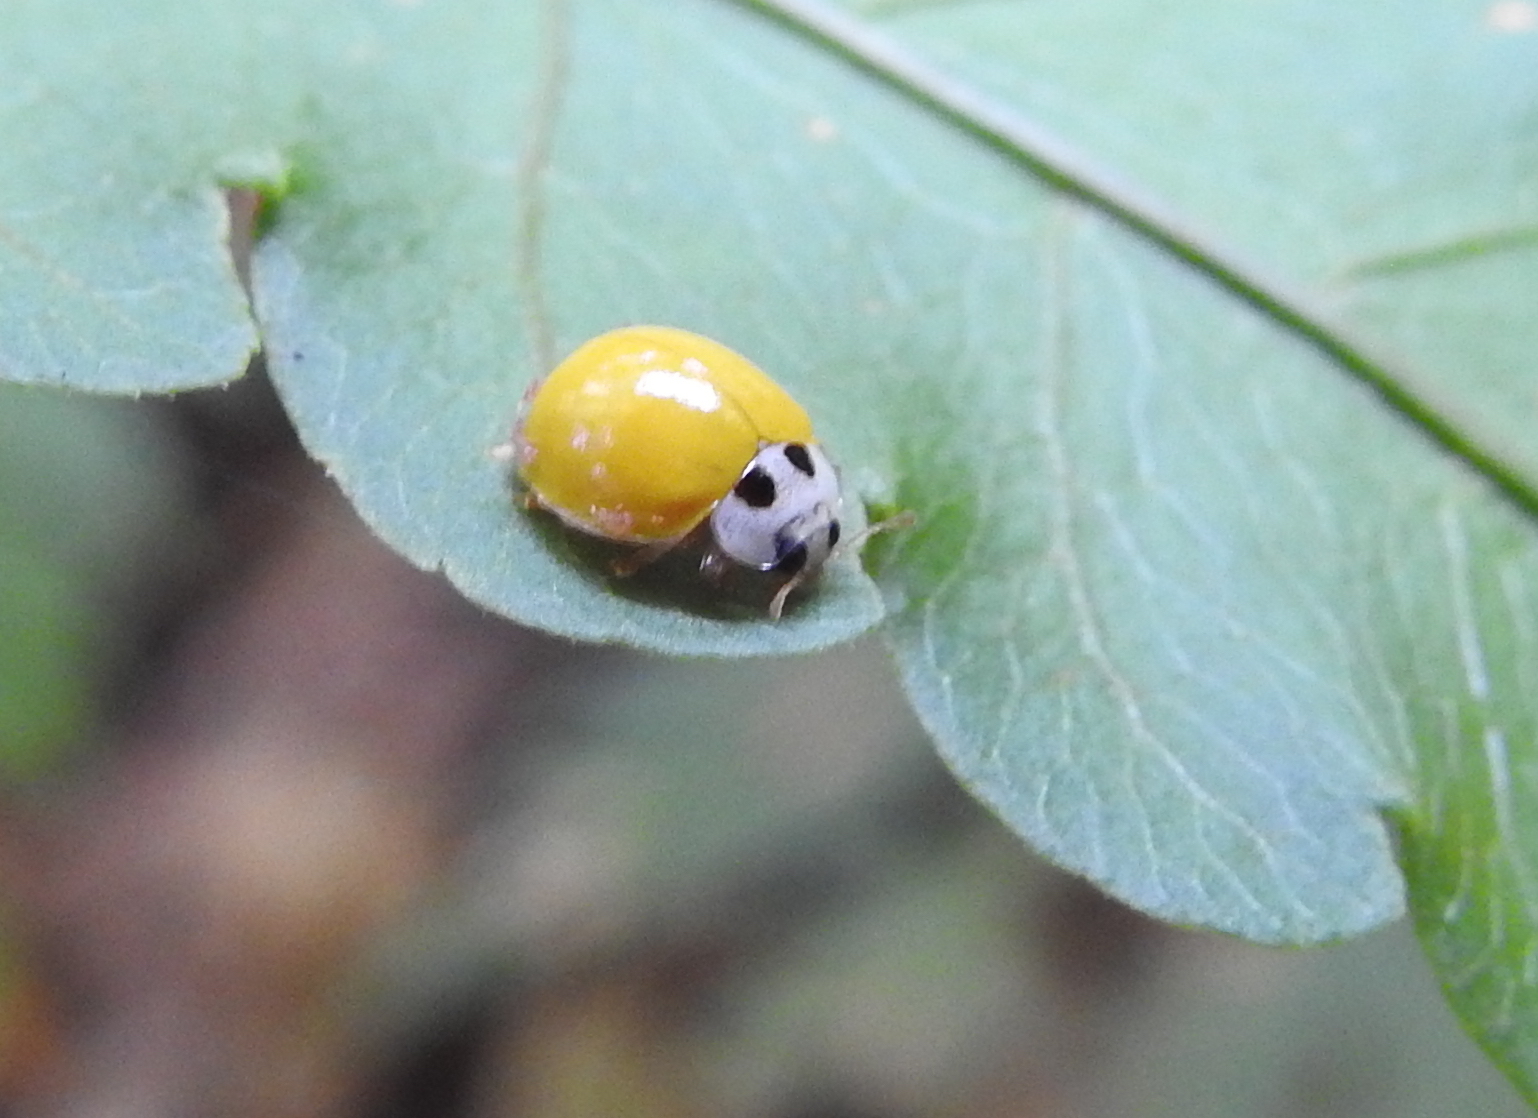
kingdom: Animalia
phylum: Arthropoda
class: Insecta
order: Coleoptera
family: Coccinellidae
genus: Illeis
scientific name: Illeis koebelei
